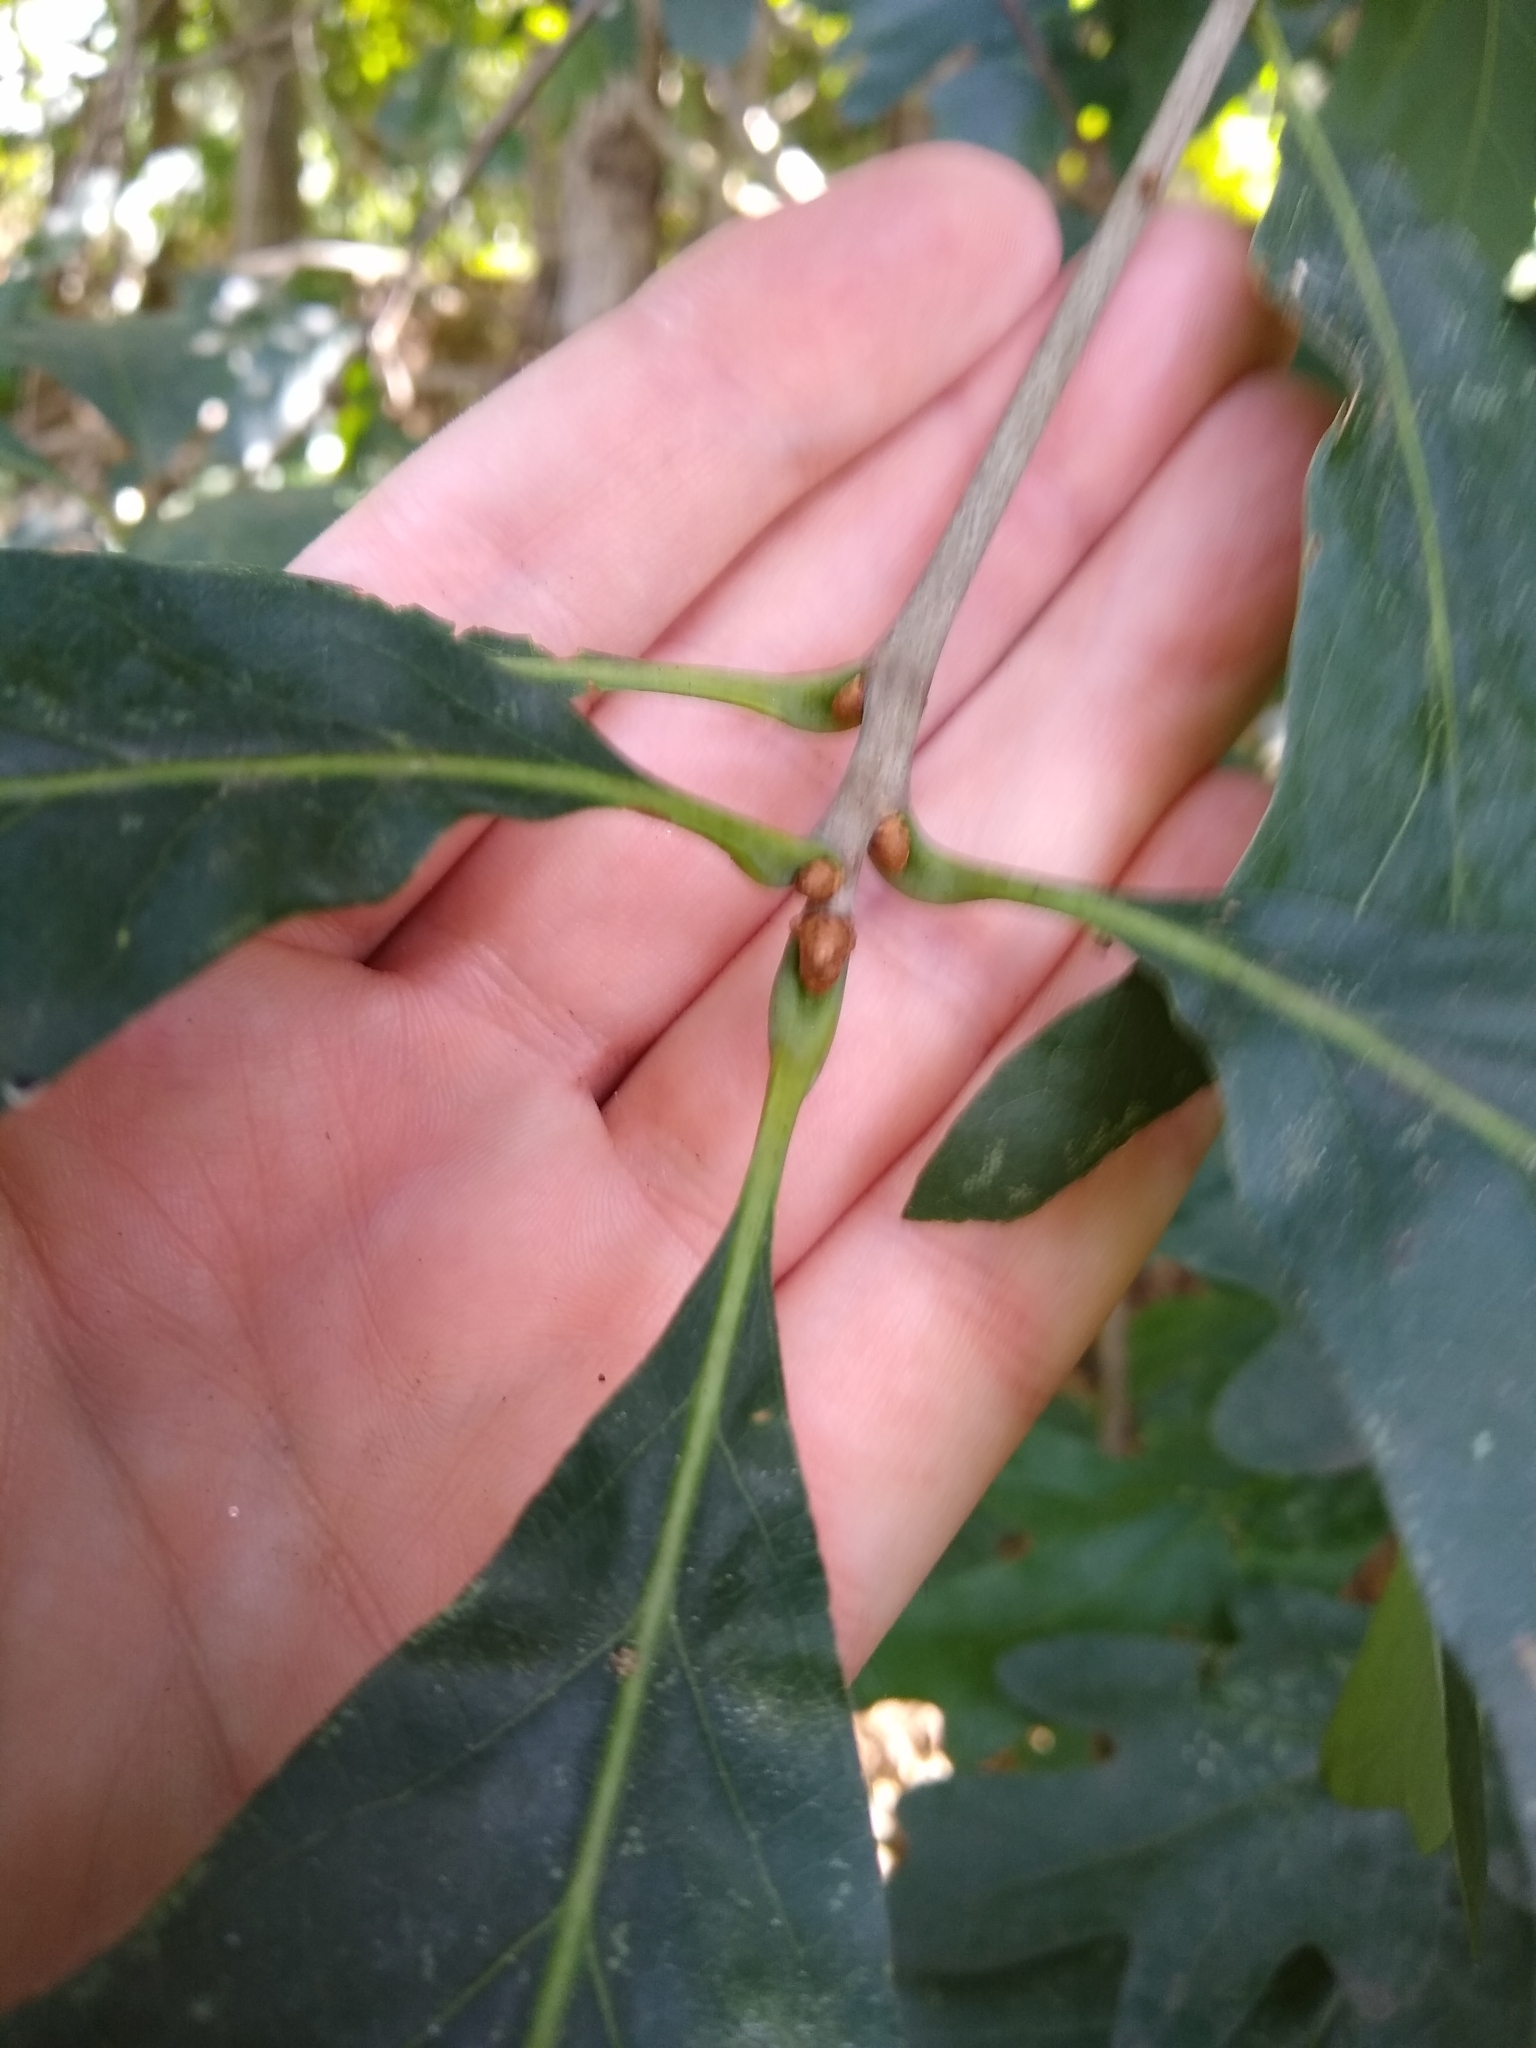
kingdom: Plantae
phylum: Tracheophyta
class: Magnoliopsida
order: Fagales
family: Fagaceae
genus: Quercus
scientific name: Quercus alba
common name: White oak
